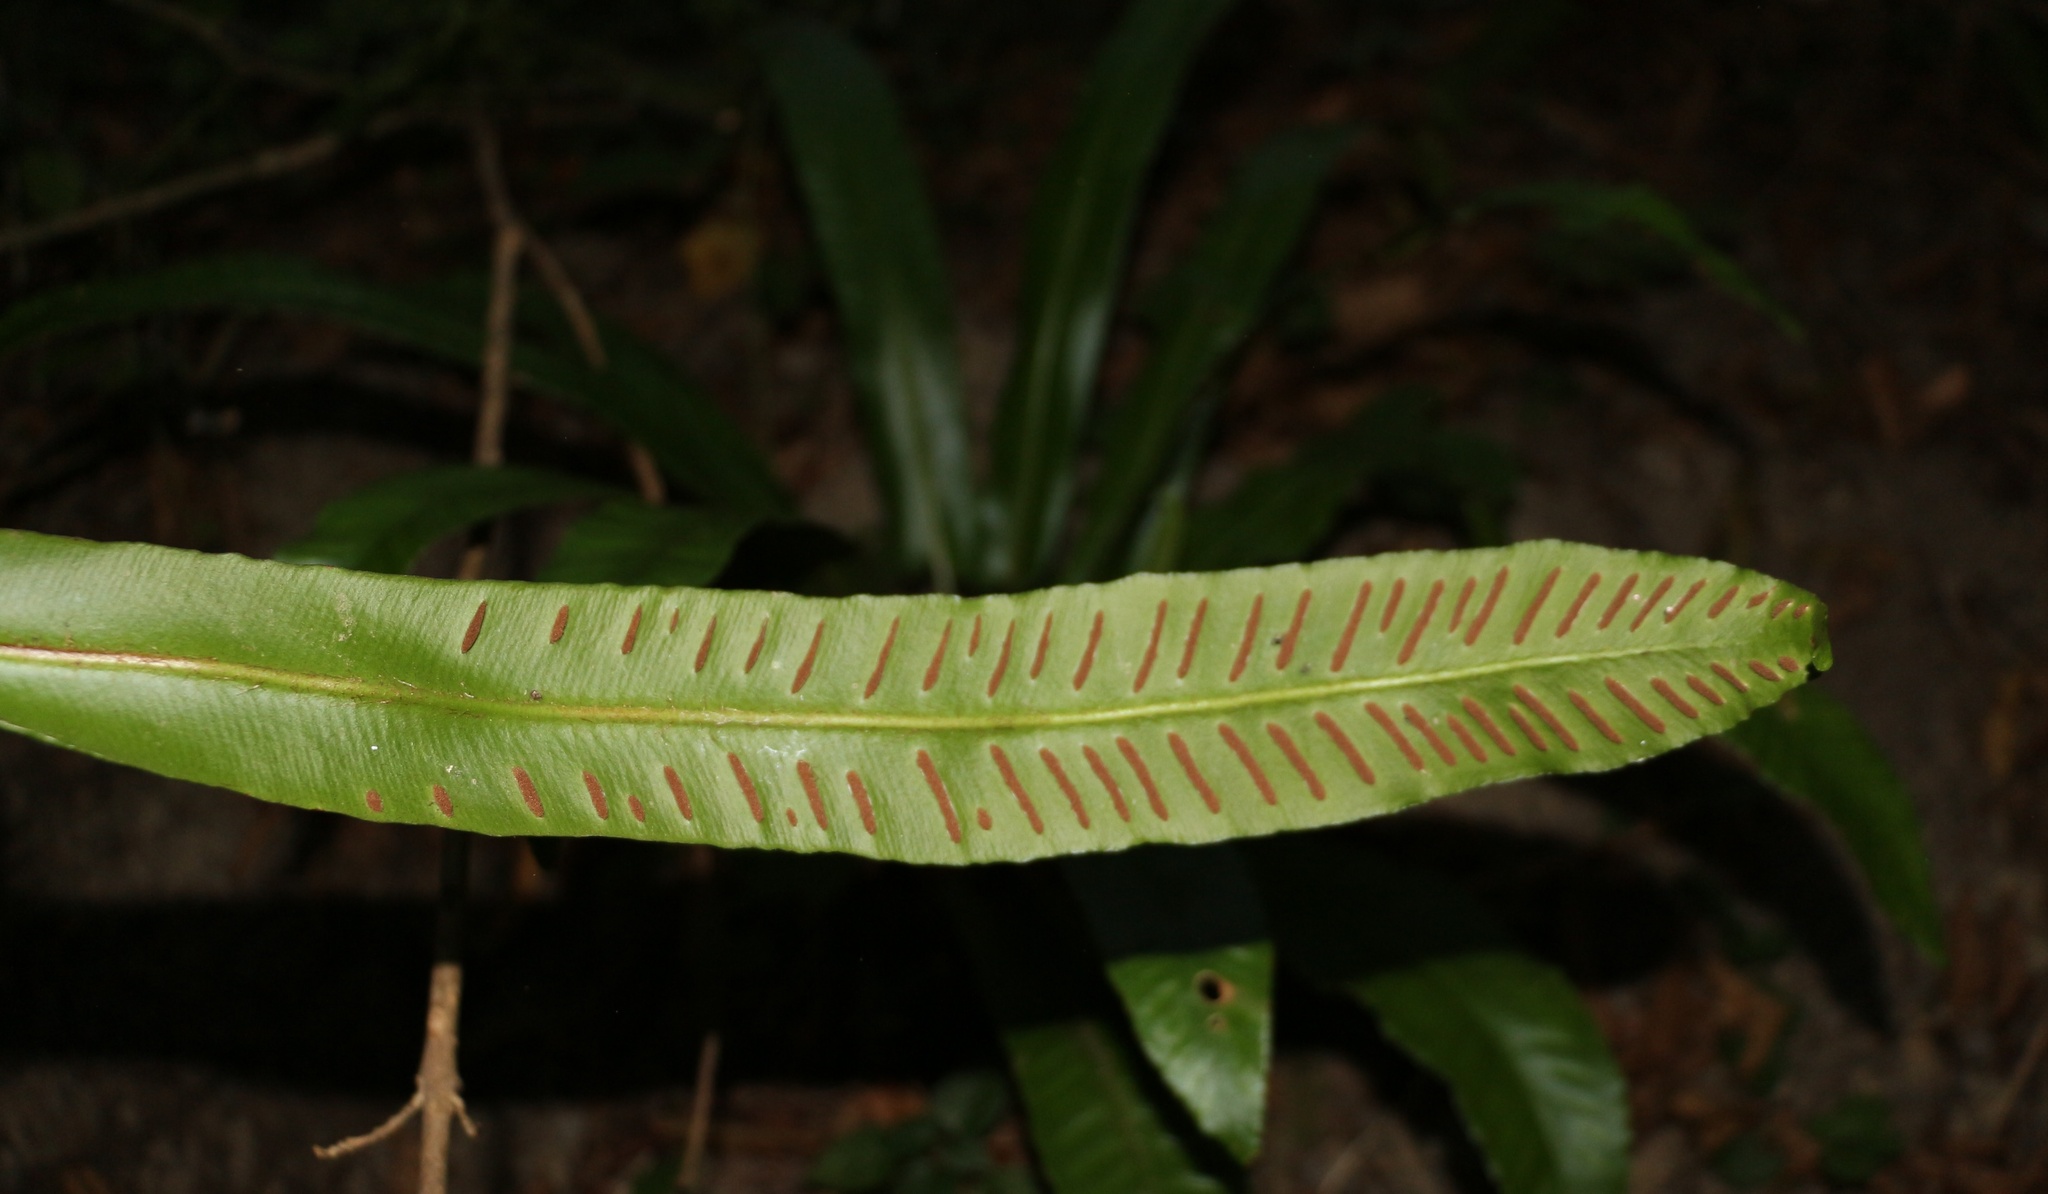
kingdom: Plantae
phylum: Tracheophyta
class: Polypodiopsida
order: Polypodiales
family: Aspleniaceae
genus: Asplenium
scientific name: Asplenium scolopendrium
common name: Hart's-tongue fern
